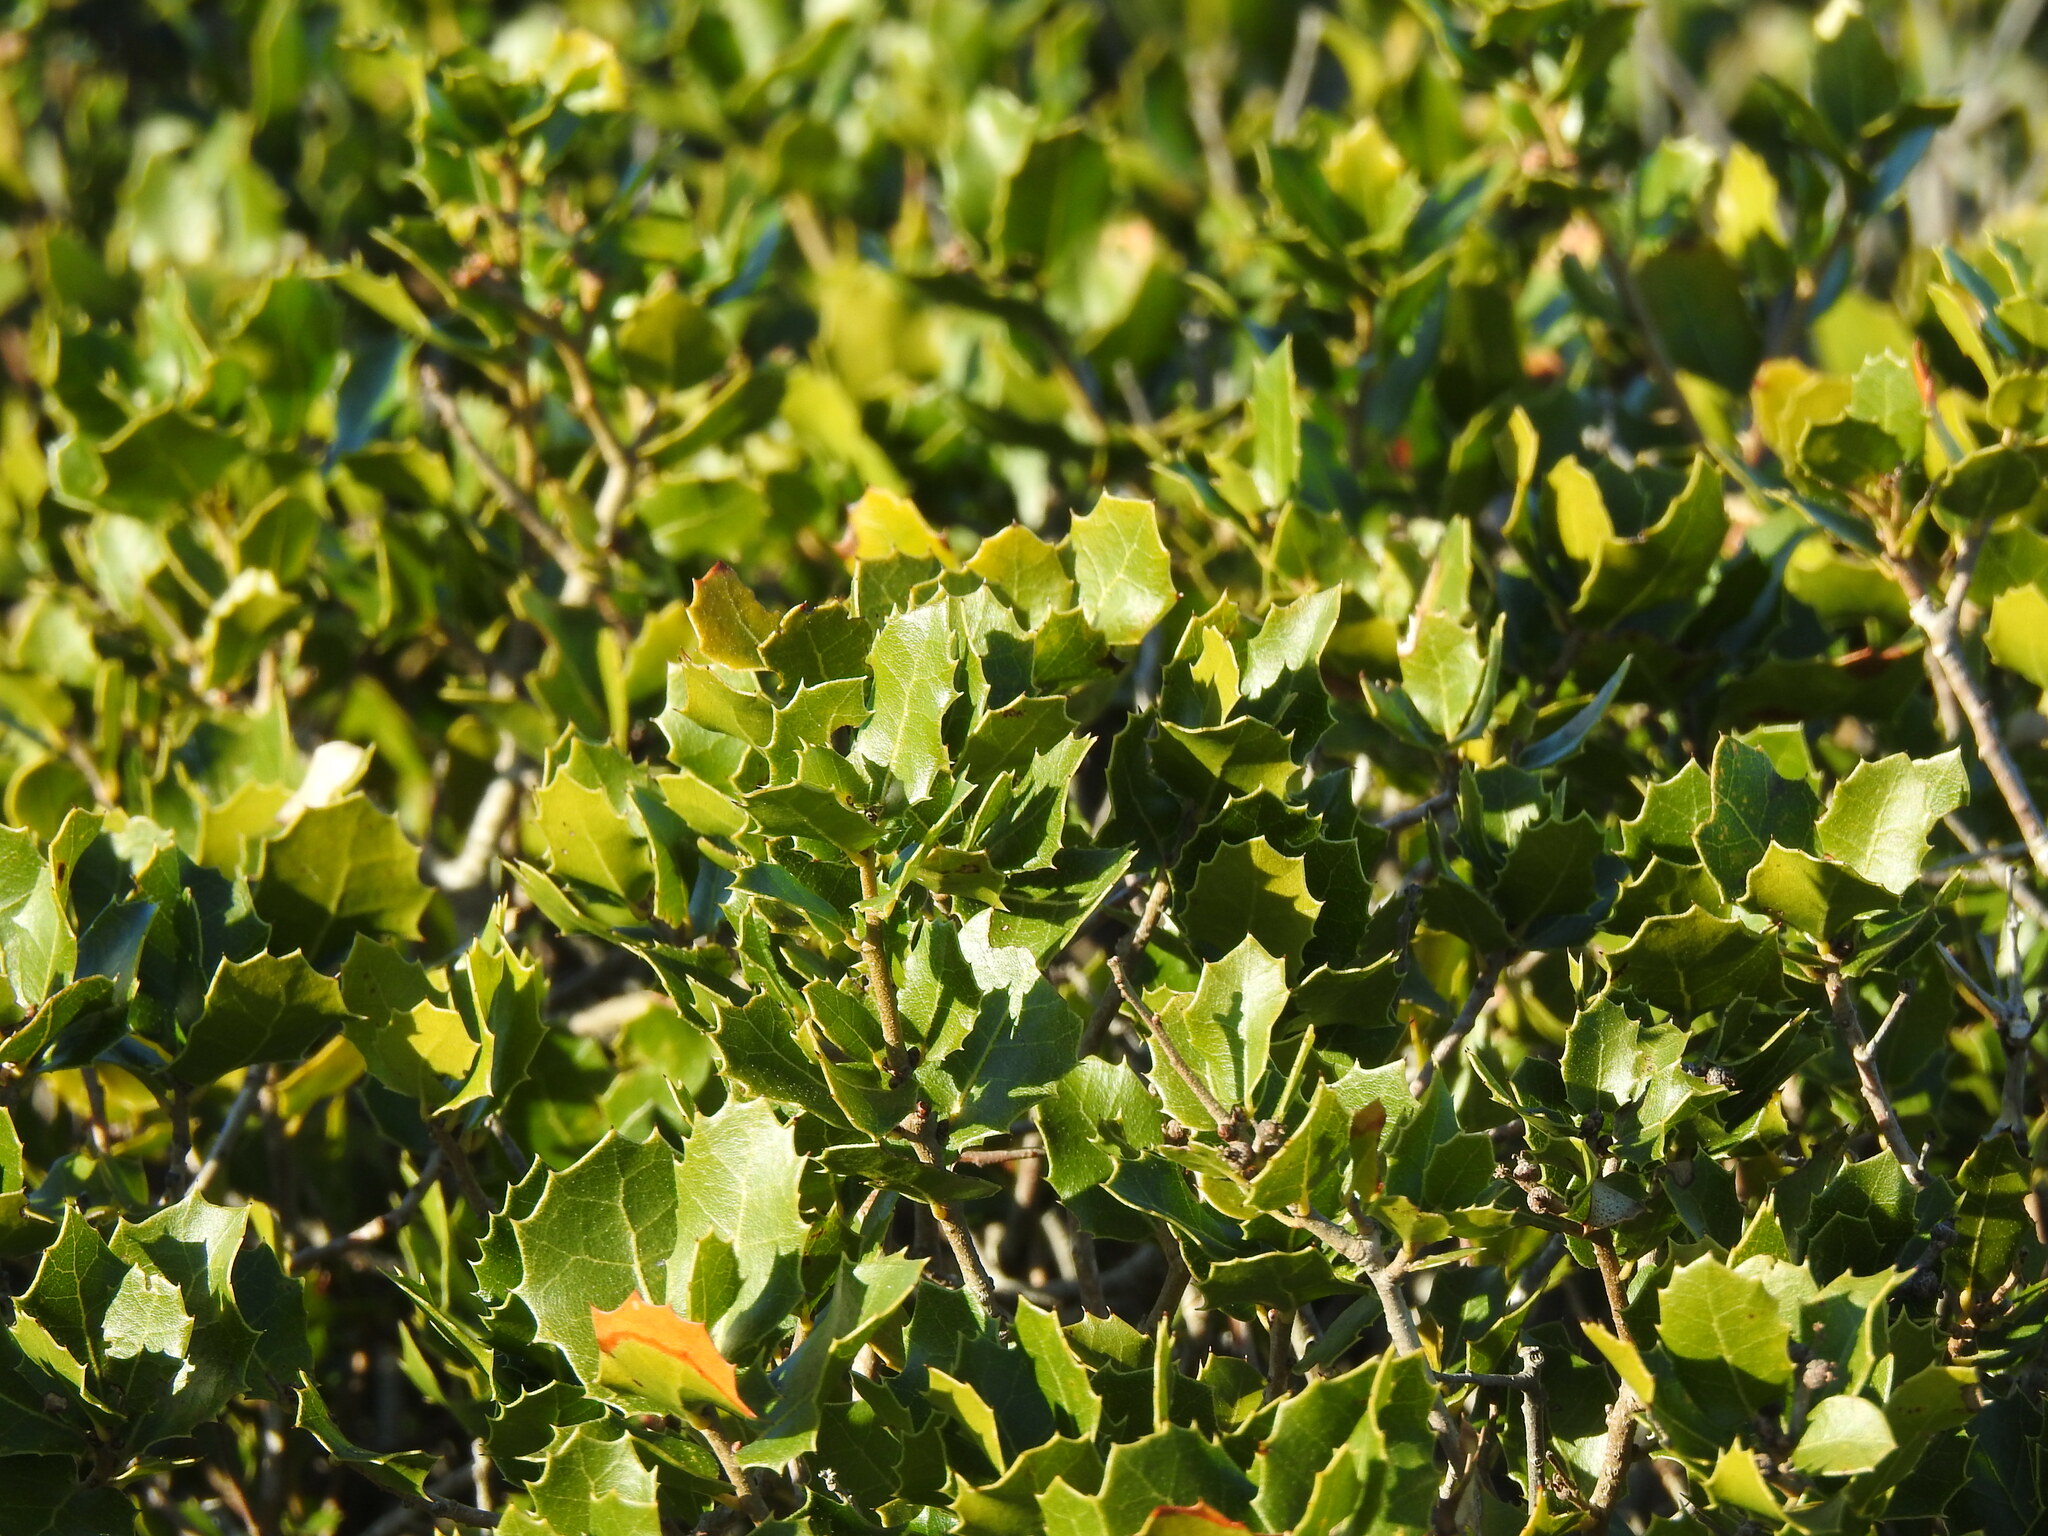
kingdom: Plantae
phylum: Tracheophyta
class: Magnoliopsida
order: Fagales
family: Fagaceae
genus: Quercus
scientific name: Quercus coccifera
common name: Kermes oak
